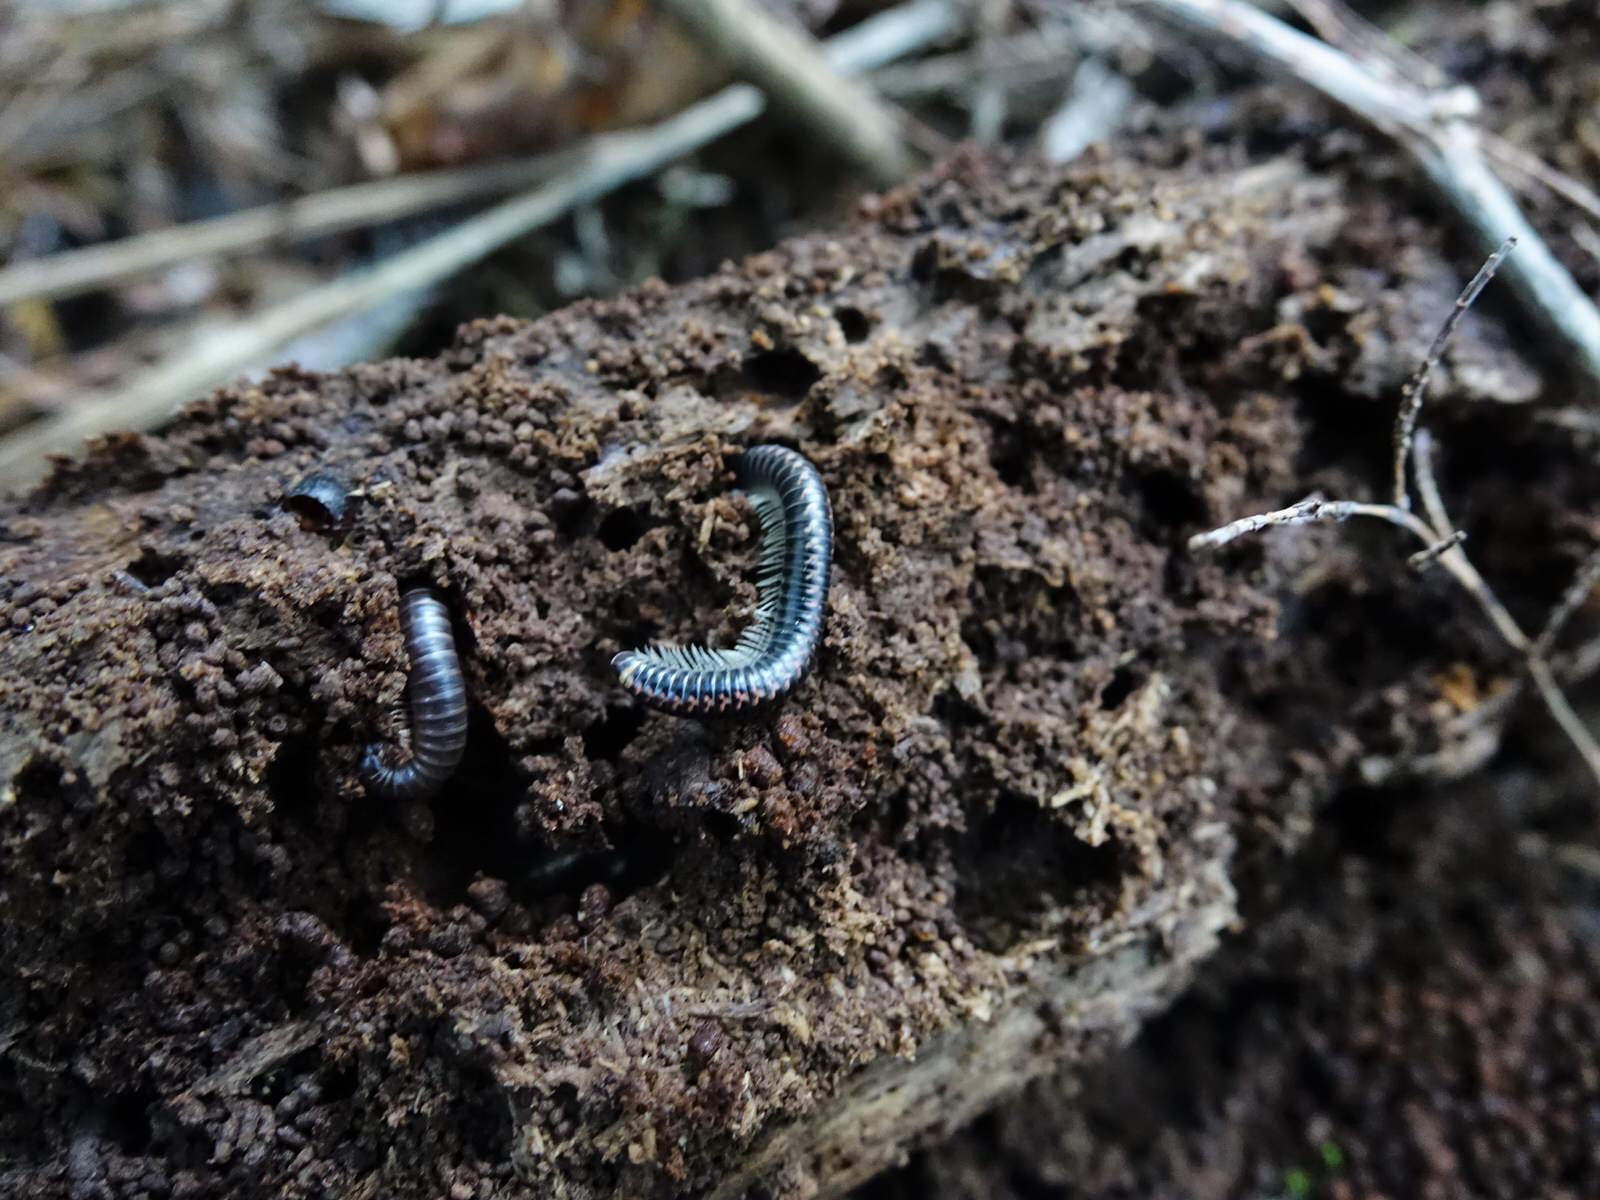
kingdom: Animalia
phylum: Arthropoda
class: Diplopoda
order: Spirobolida
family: Spirobolellidae
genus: Spirobolellus
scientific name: Spirobolellus antipodarum
